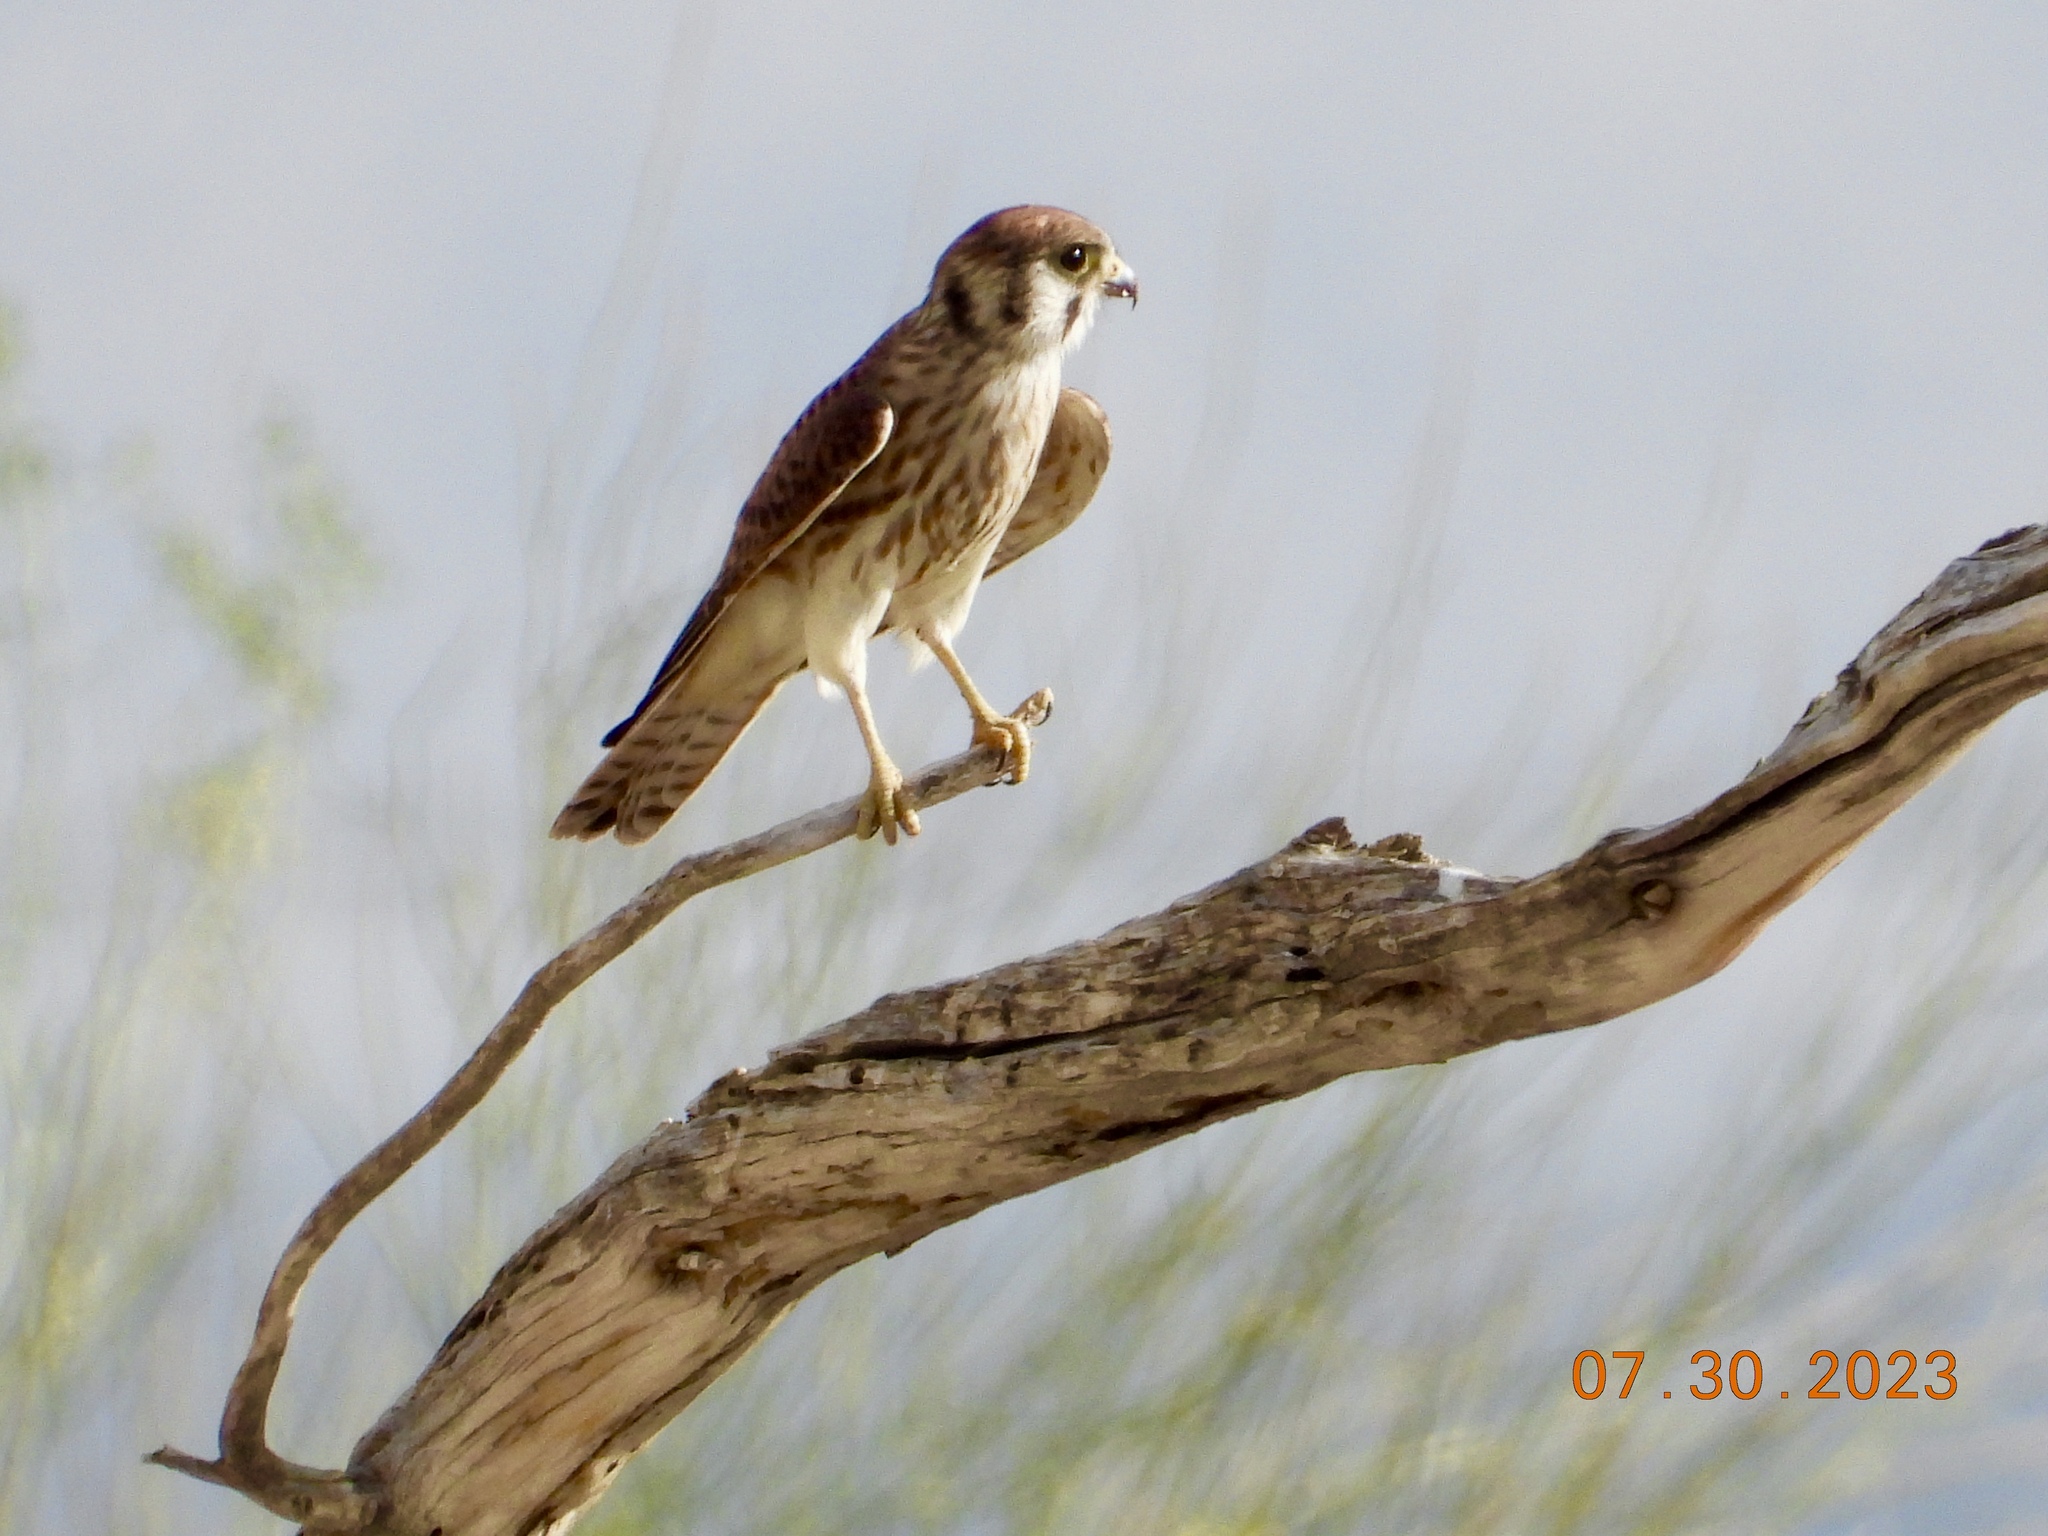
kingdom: Animalia
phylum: Chordata
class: Aves
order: Falconiformes
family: Falconidae
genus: Falco
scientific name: Falco sparverius
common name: American kestrel
